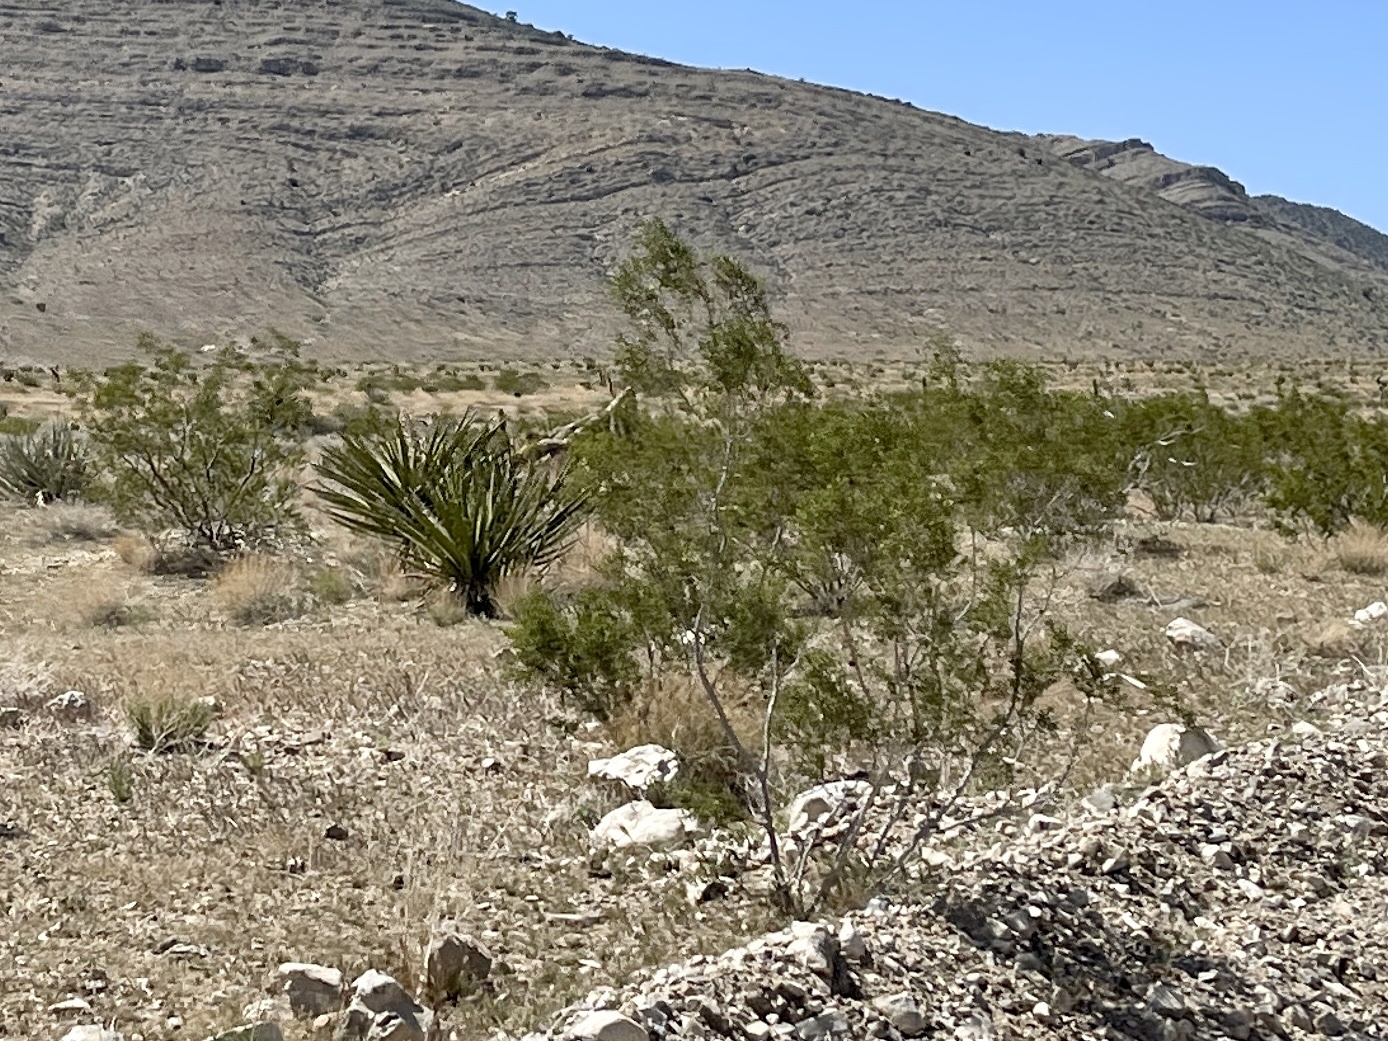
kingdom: Plantae
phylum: Tracheophyta
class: Magnoliopsida
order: Zygophyllales
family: Zygophyllaceae
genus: Larrea
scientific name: Larrea tridentata
